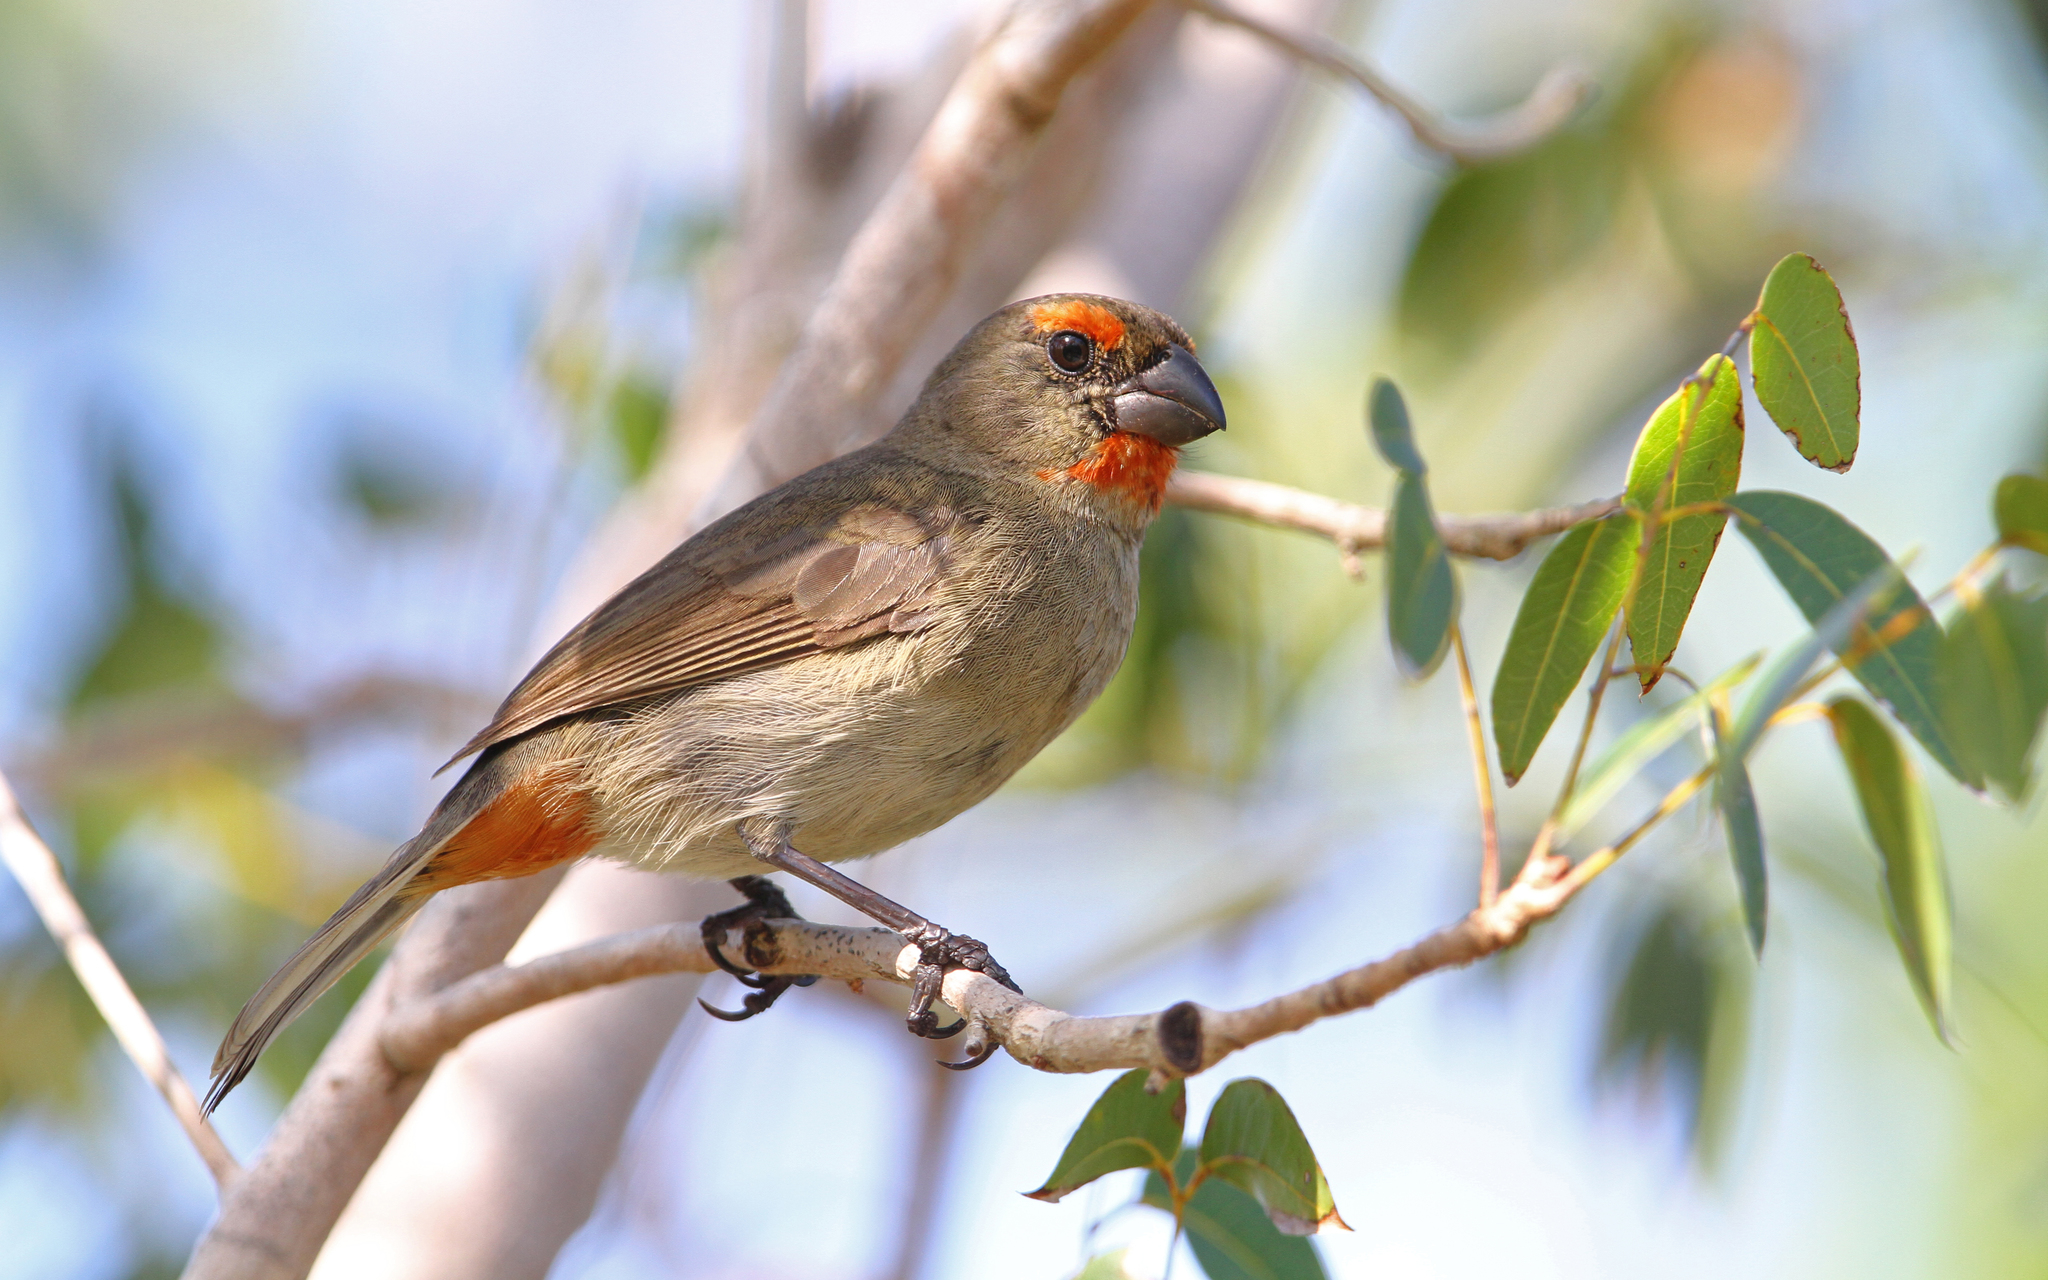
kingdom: Animalia
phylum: Chordata
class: Aves
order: Passeriformes
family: Thraupidae
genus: Melopyrrha
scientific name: Melopyrrha violacea
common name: Greater antillean bullfinch
